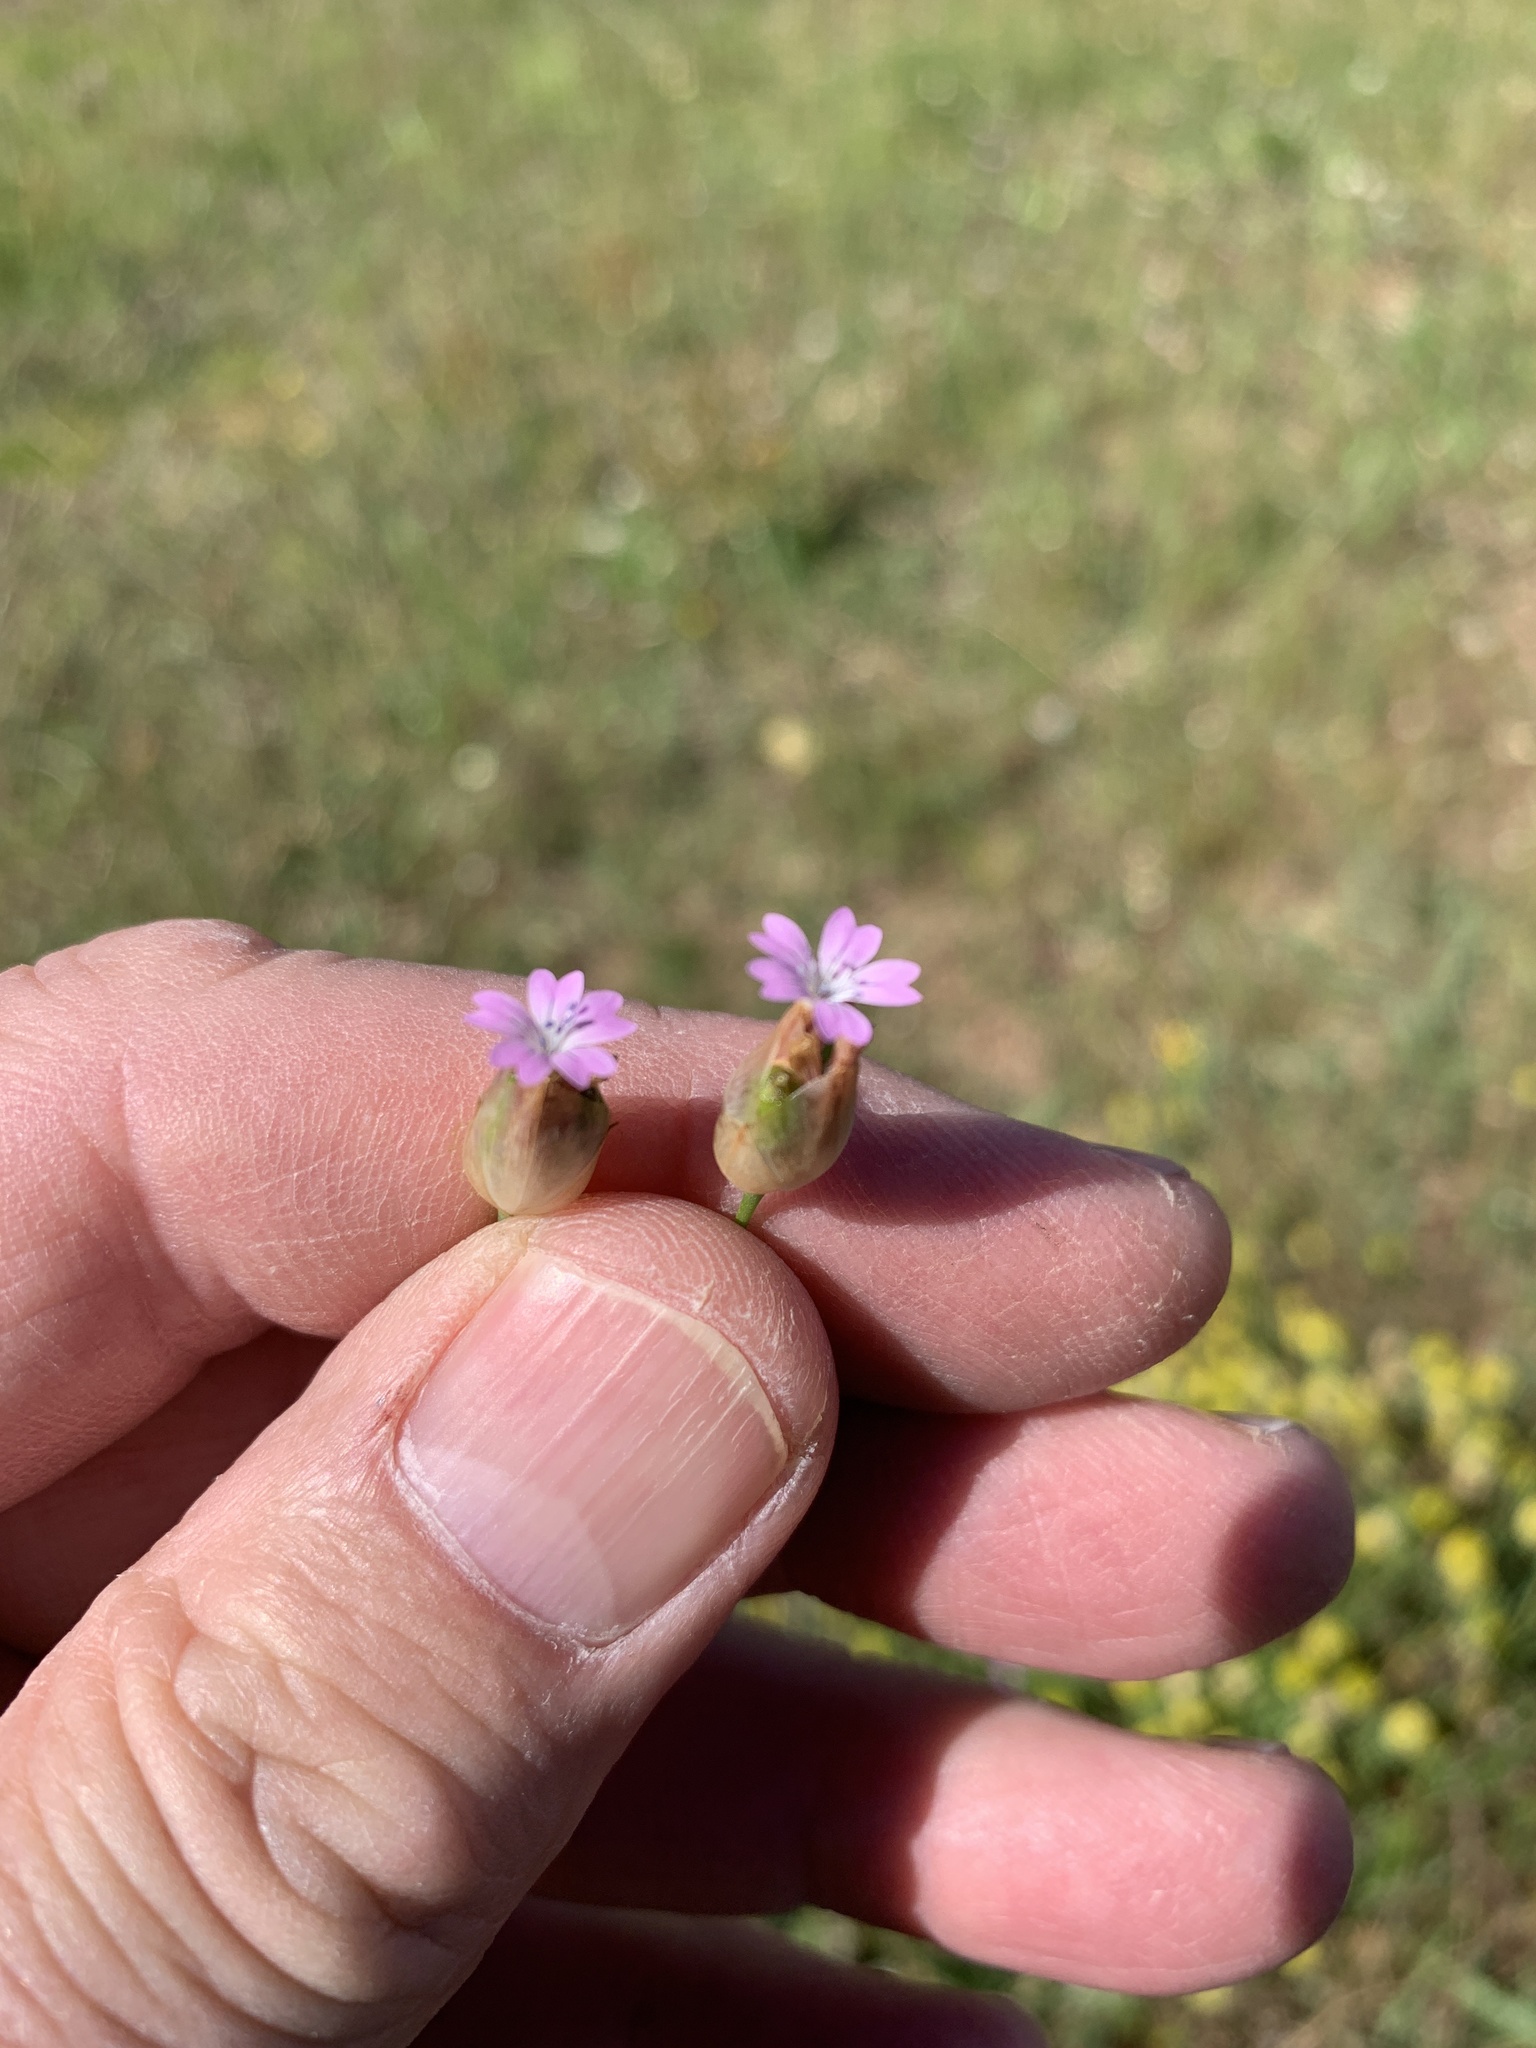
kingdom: Plantae
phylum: Tracheophyta
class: Magnoliopsida
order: Caryophyllales
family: Caryophyllaceae
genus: Petrorhagia
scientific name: Petrorhagia dubia
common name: Hairypink
